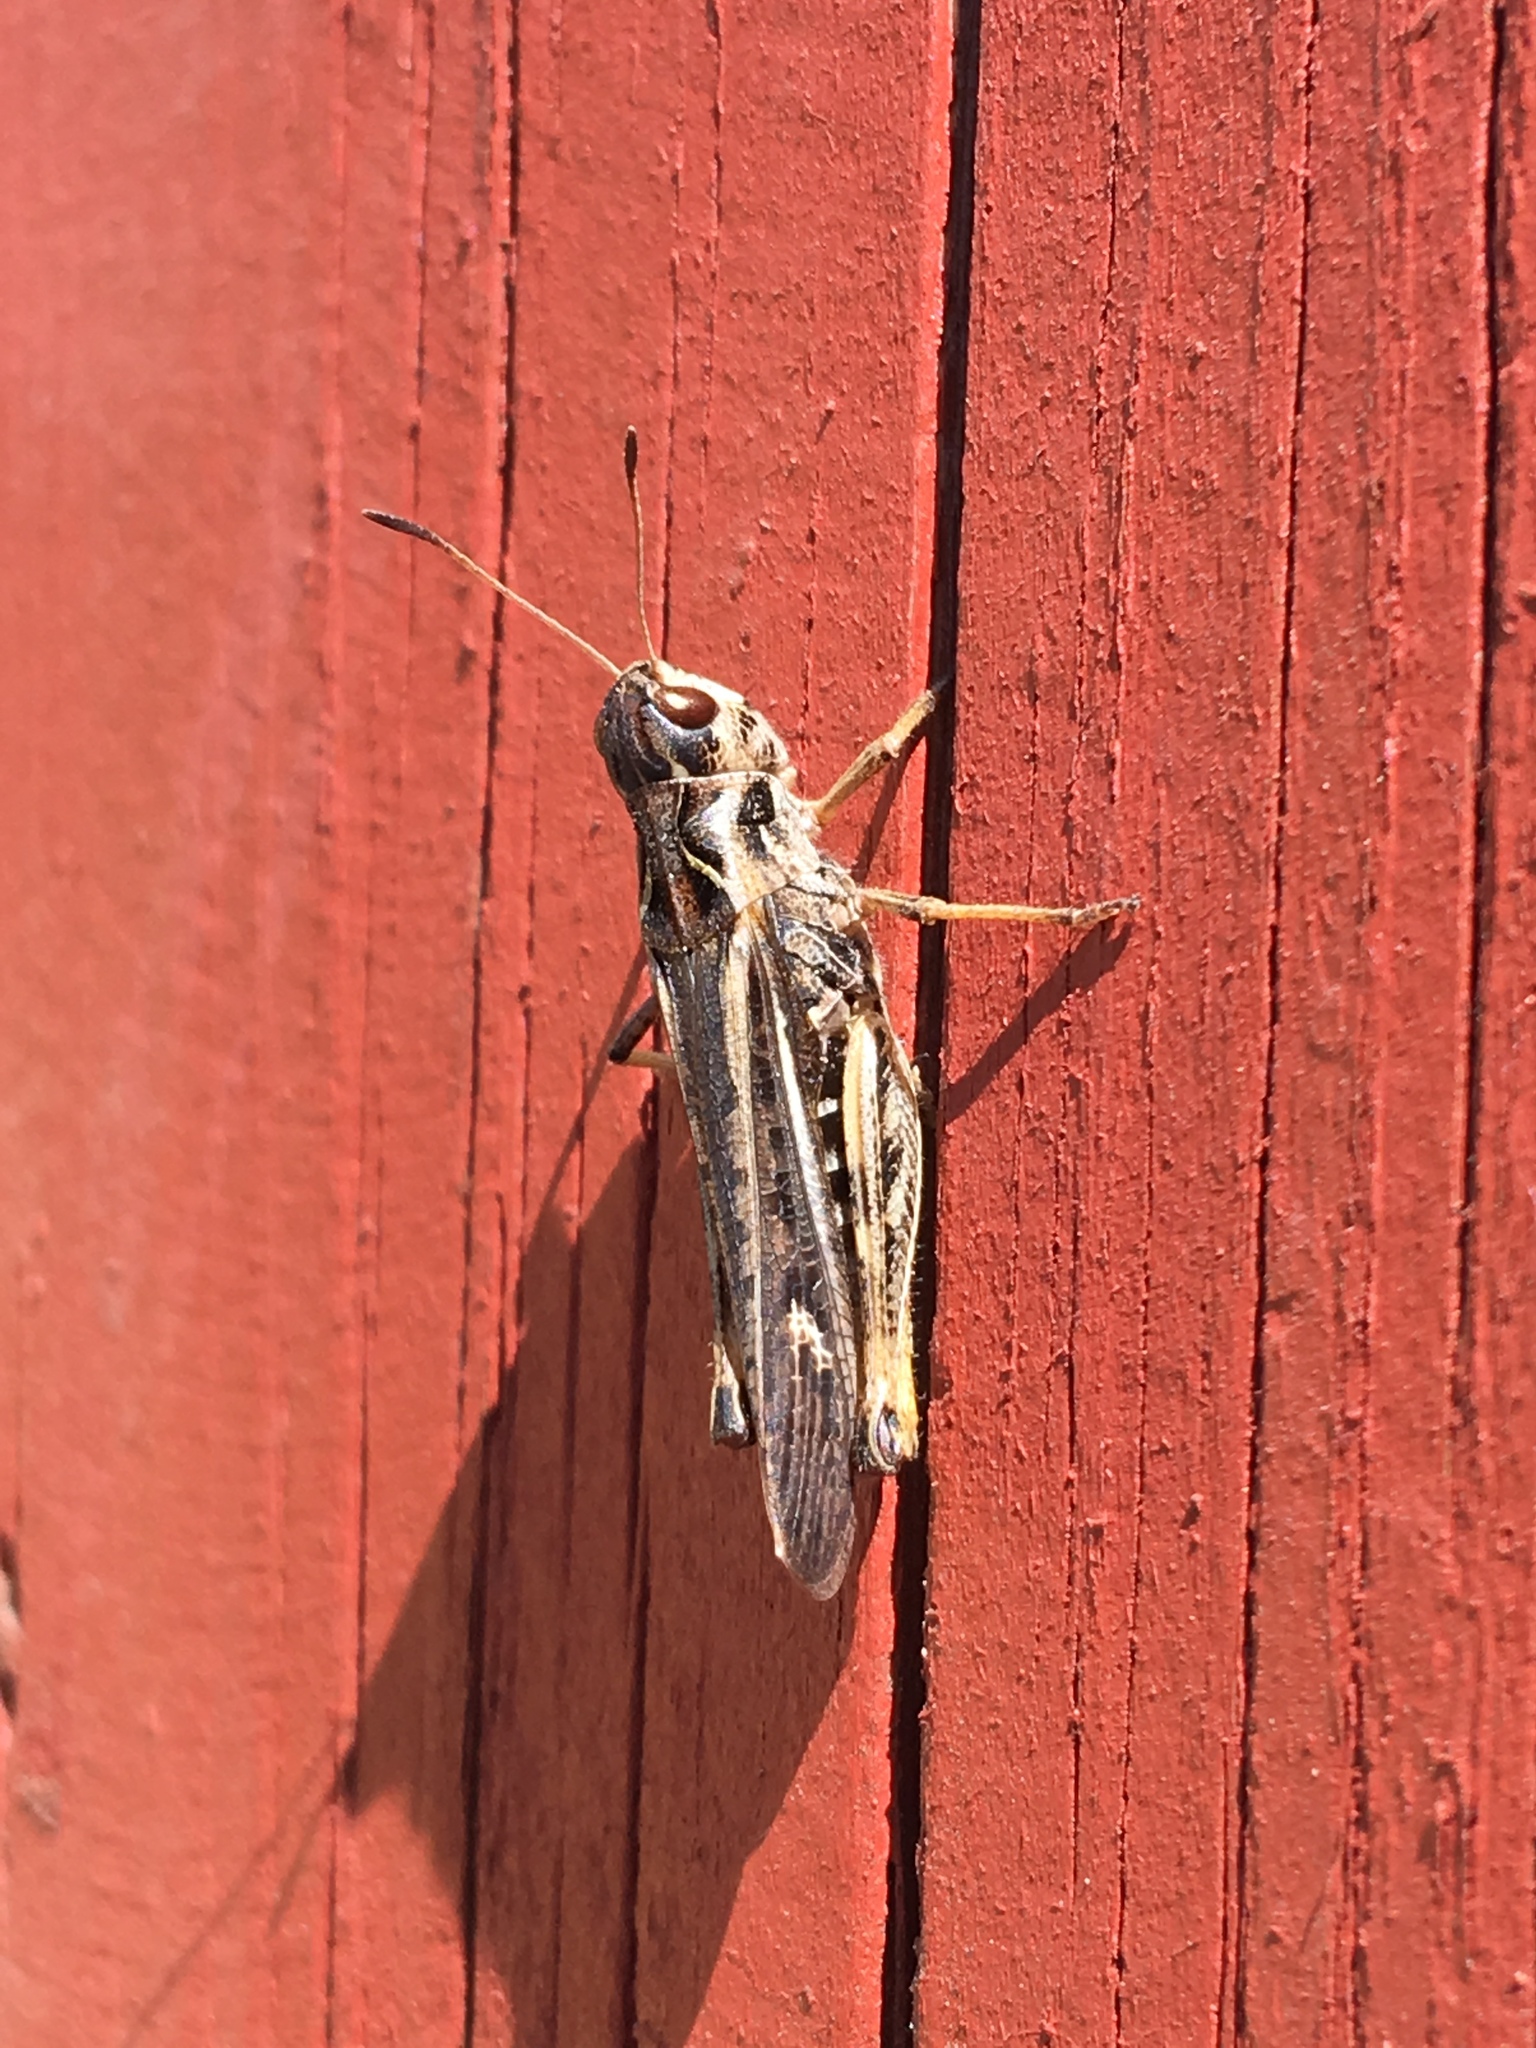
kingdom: Animalia
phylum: Arthropoda
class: Insecta
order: Orthoptera
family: Acrididae
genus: Gomphocerus
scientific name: Gomphocerus sibiricus
